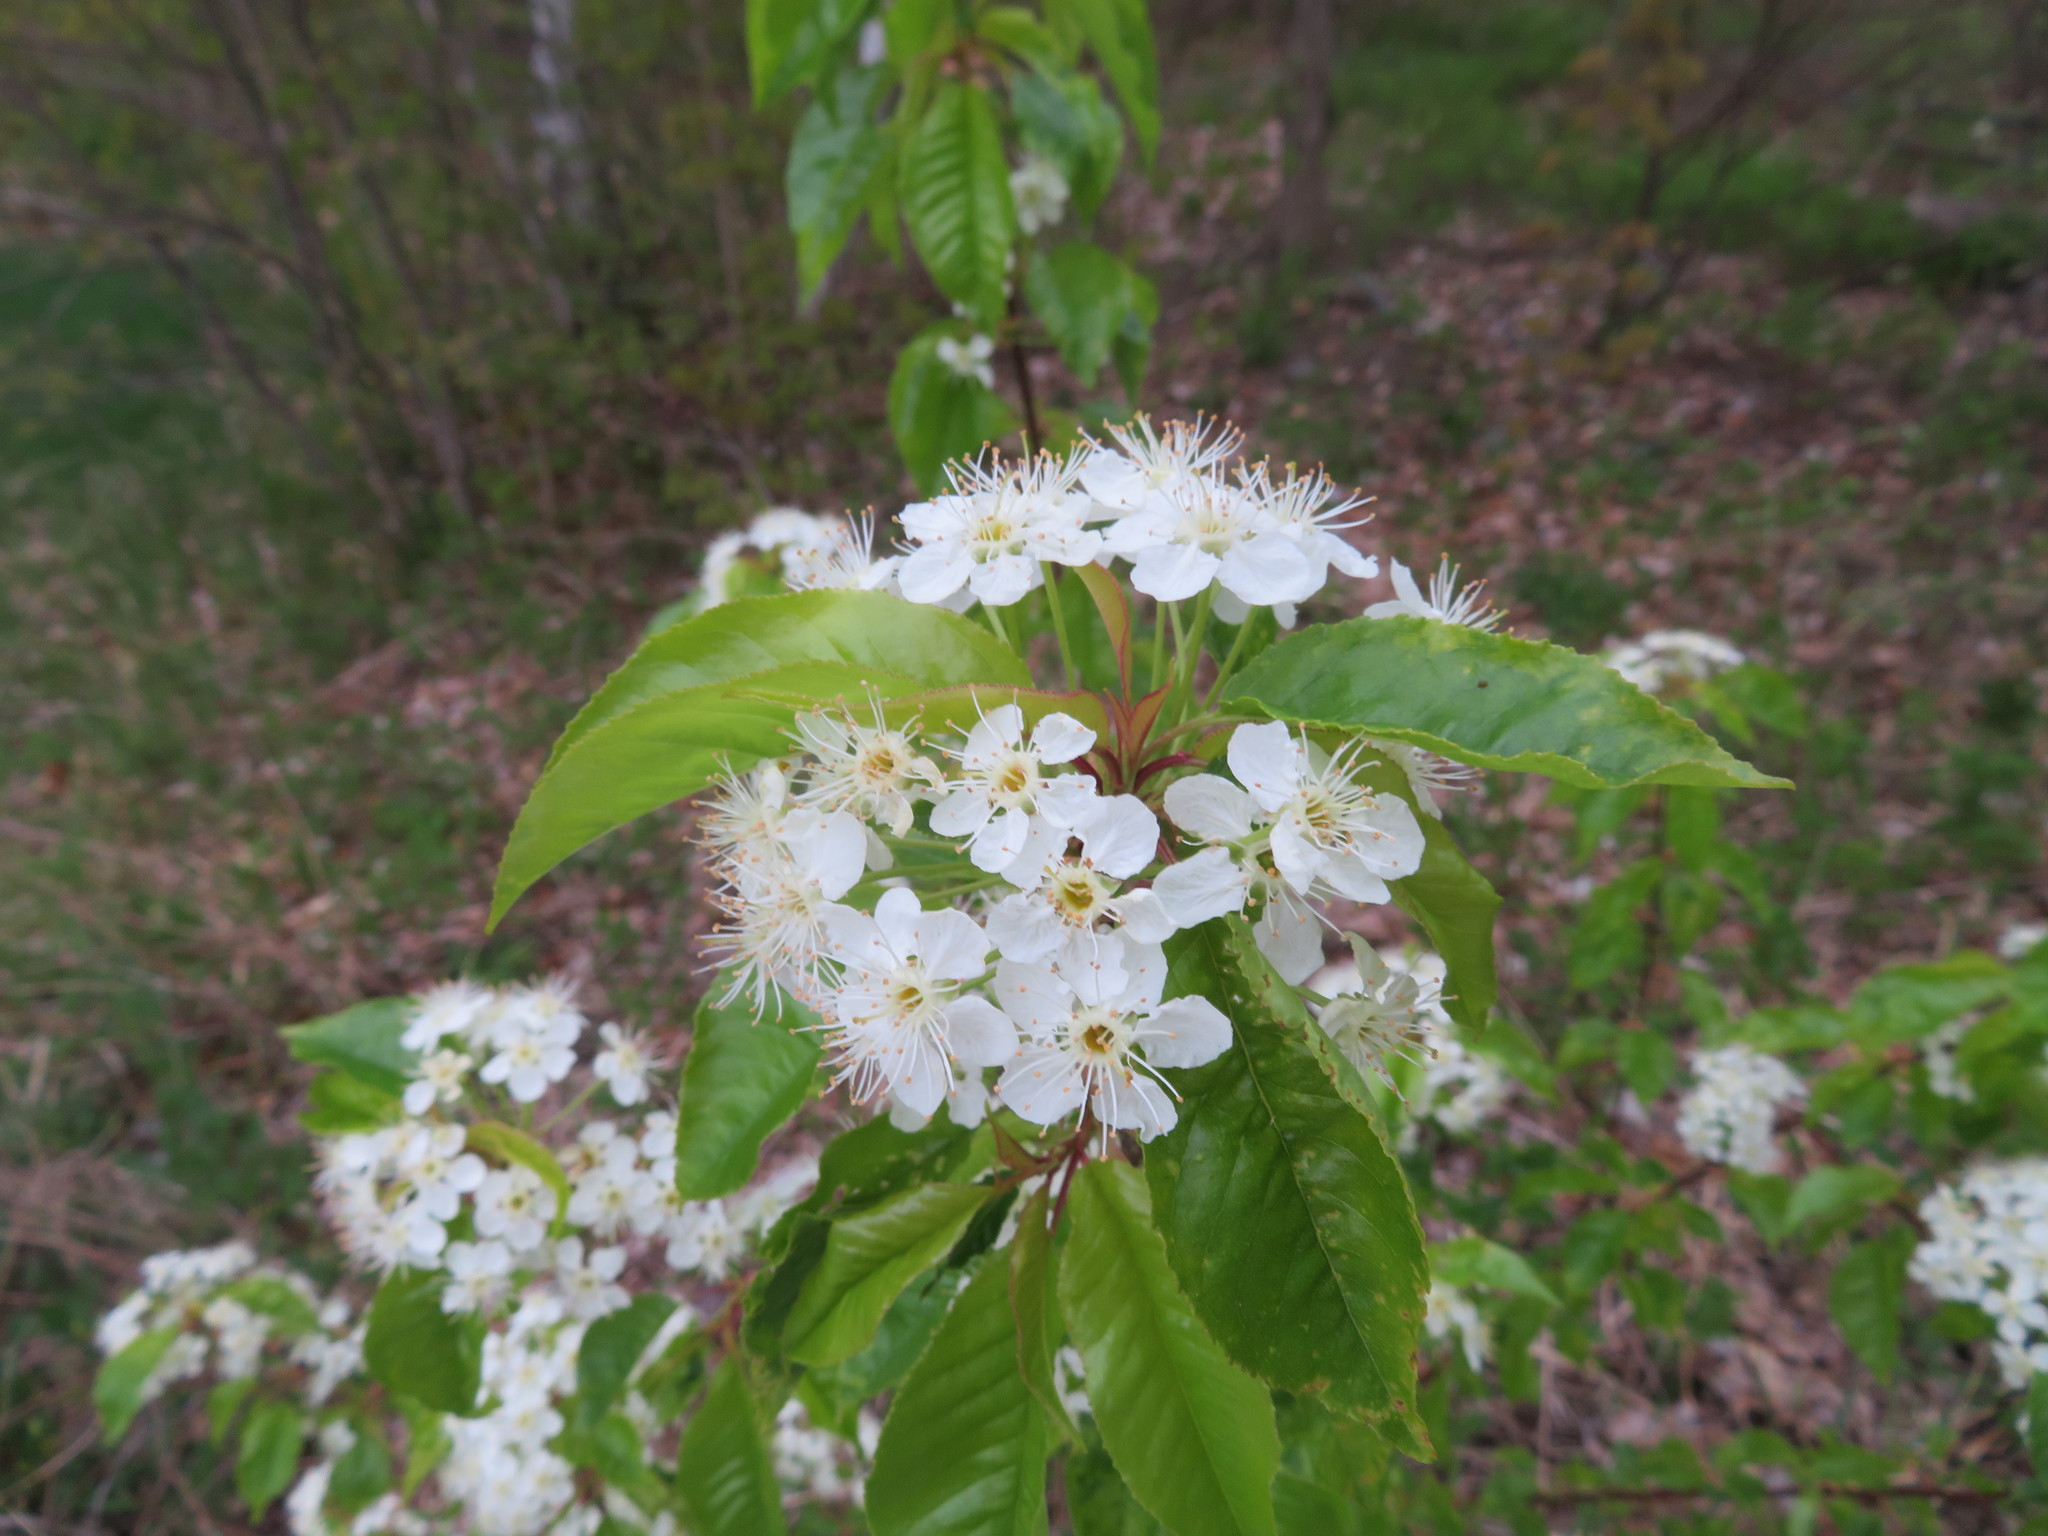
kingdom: Plantae
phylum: Tracheophyta
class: Magnoliopsida
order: Rosales
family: Rosaceae
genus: Prunus
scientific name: Prunus pensylvanica
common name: Pin cherry
